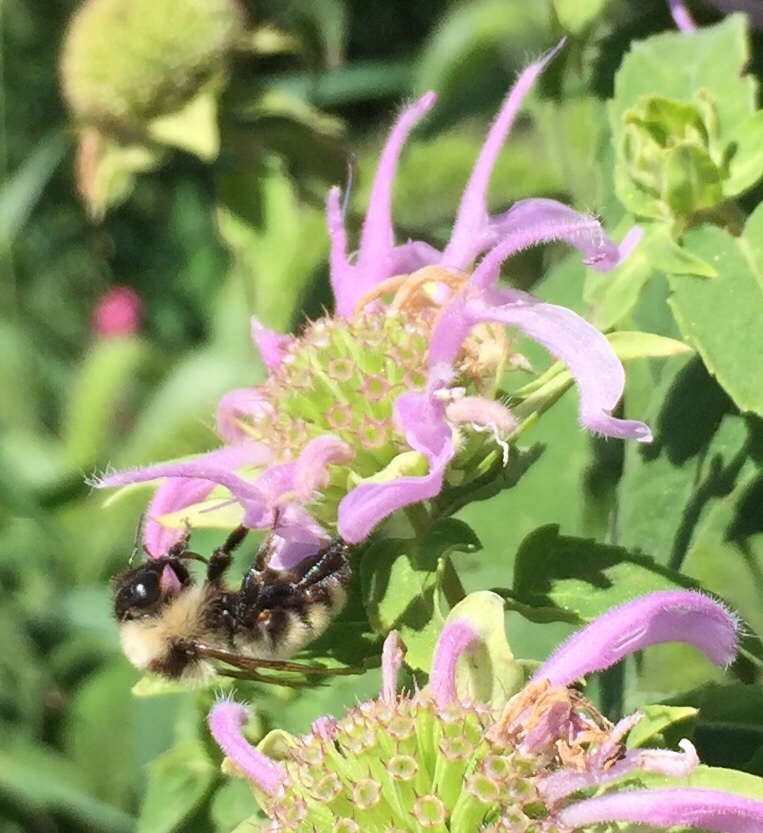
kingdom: Animalia
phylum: Arthropoda
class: Insecta
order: Hymenoptera
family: Apidae
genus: Bombus
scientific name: Bombus fervidus
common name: Yellow bumble bee
